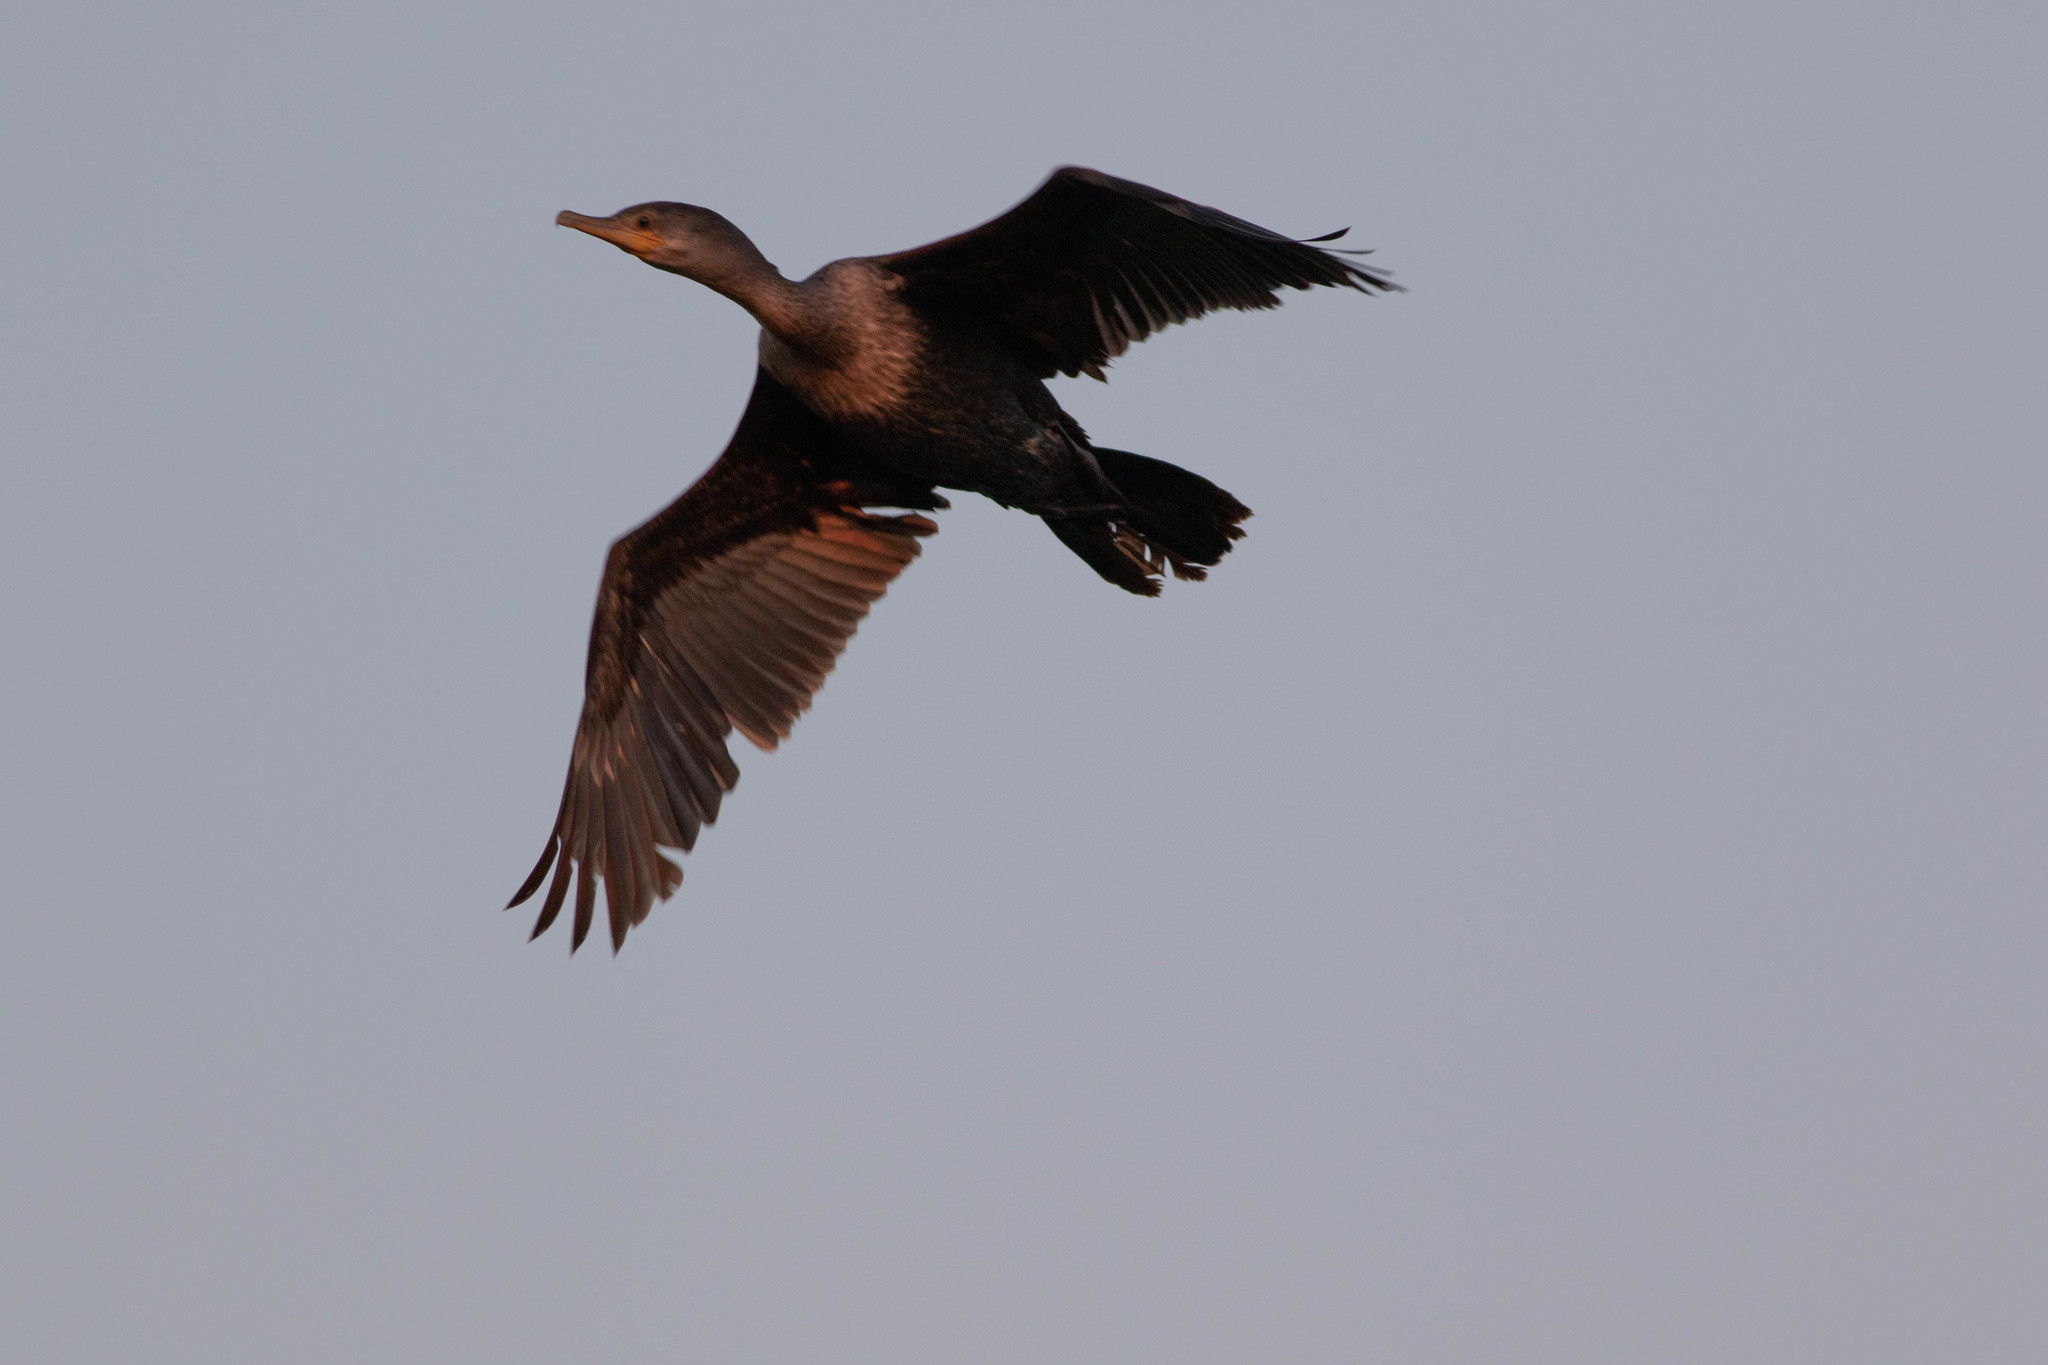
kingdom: Animalia
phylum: Chordata
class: Aves
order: Suliformes
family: Phalacrocoracidae
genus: Phalacrocorax
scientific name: Phalacrocorax auritus
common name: Double-crested cormorant
